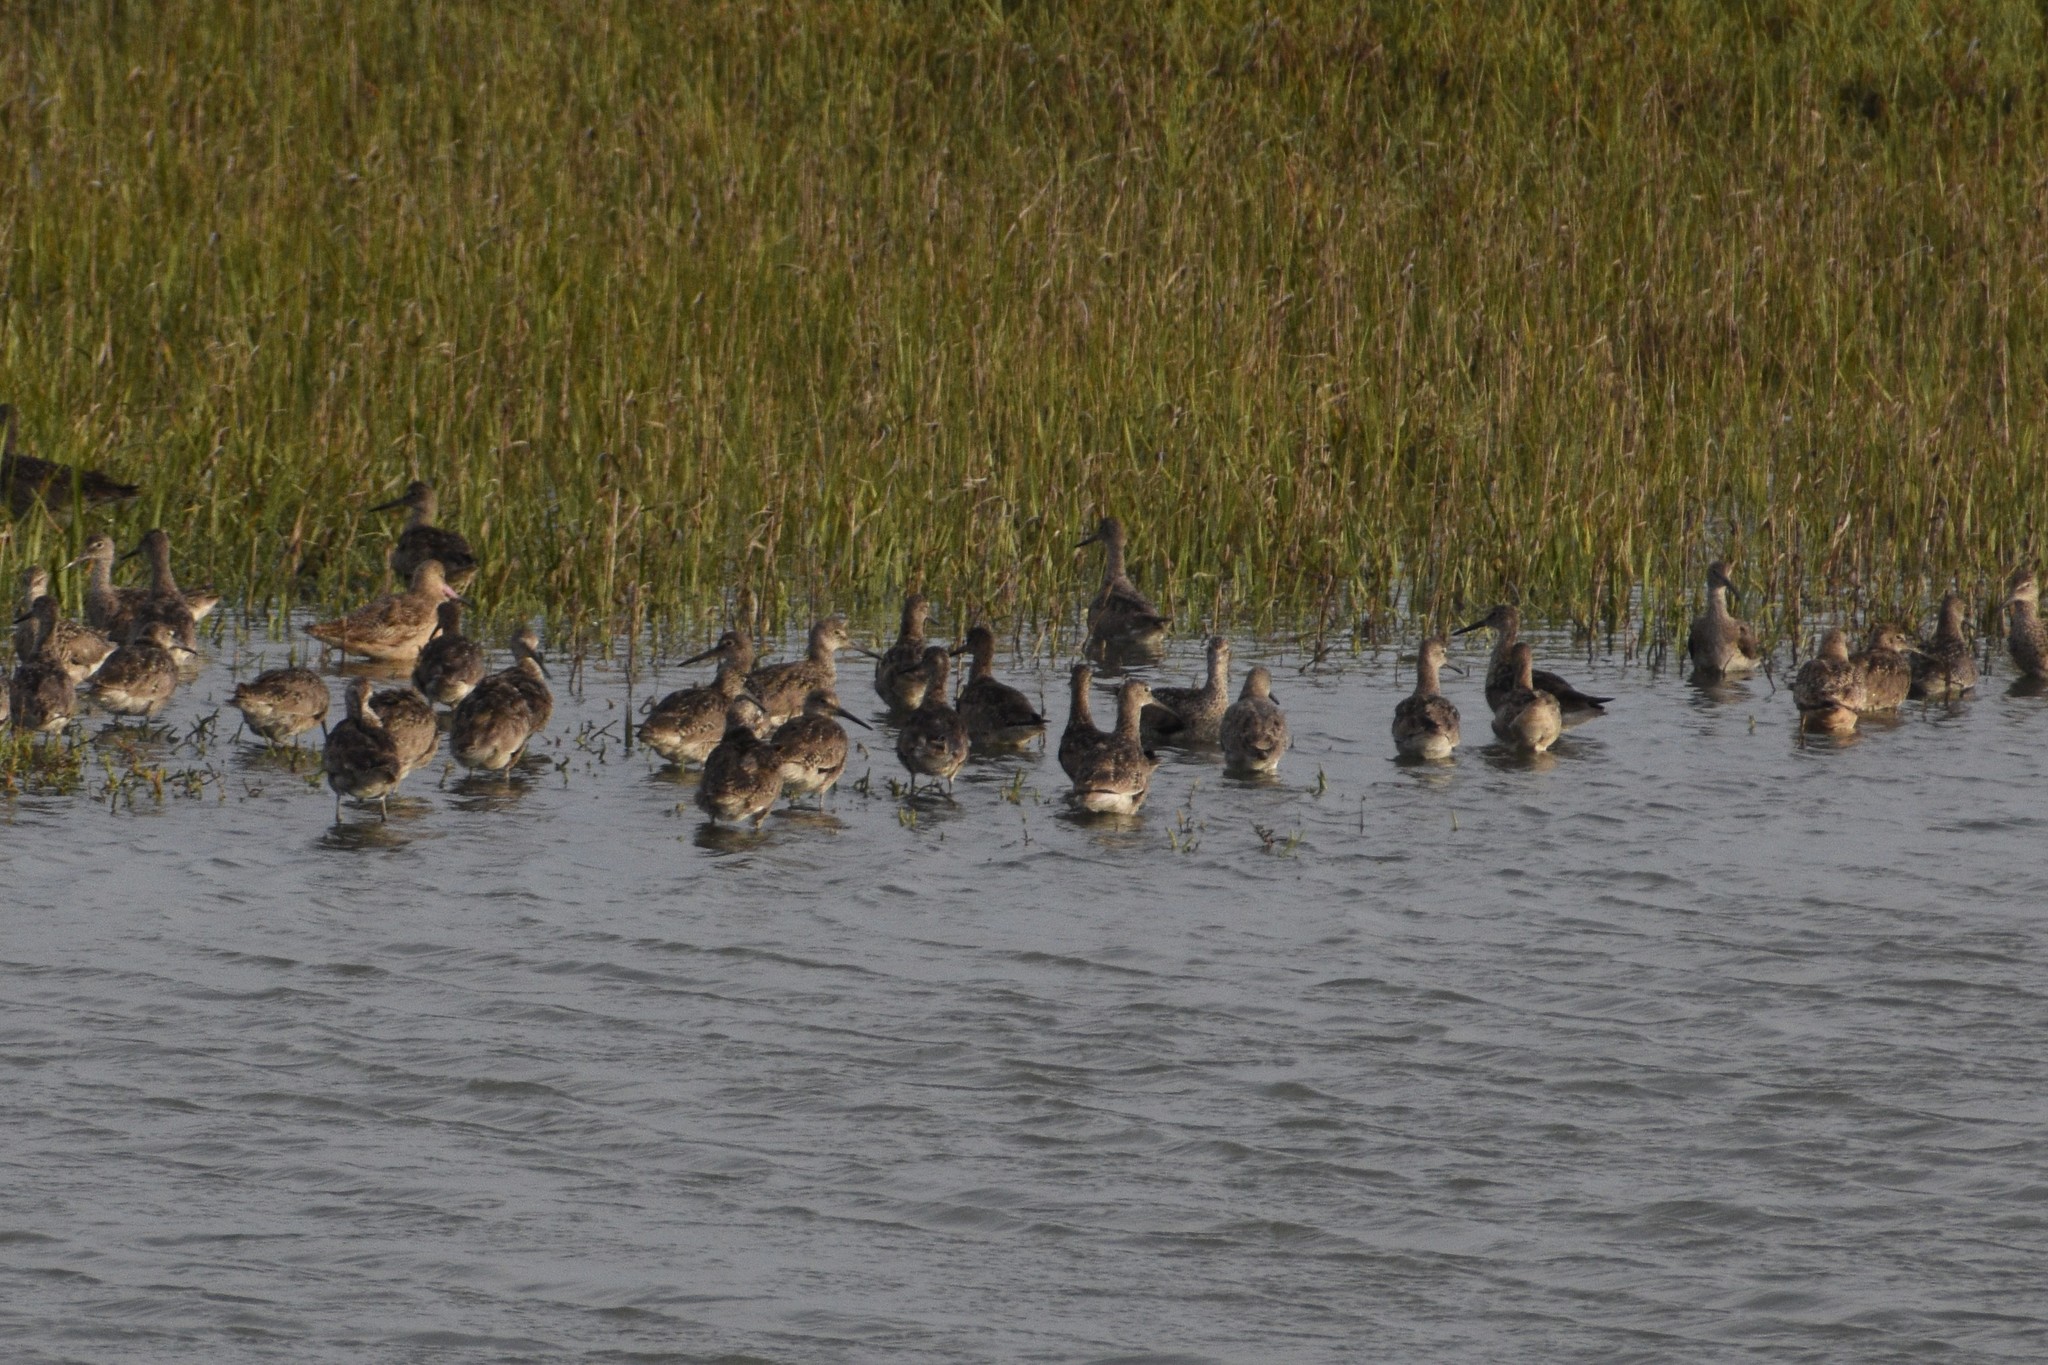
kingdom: Animalia
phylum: Chordata
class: Aves
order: Charadriiformes
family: Scolopacidae
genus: Tringa
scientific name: Tringa semipalmata
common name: Willet
